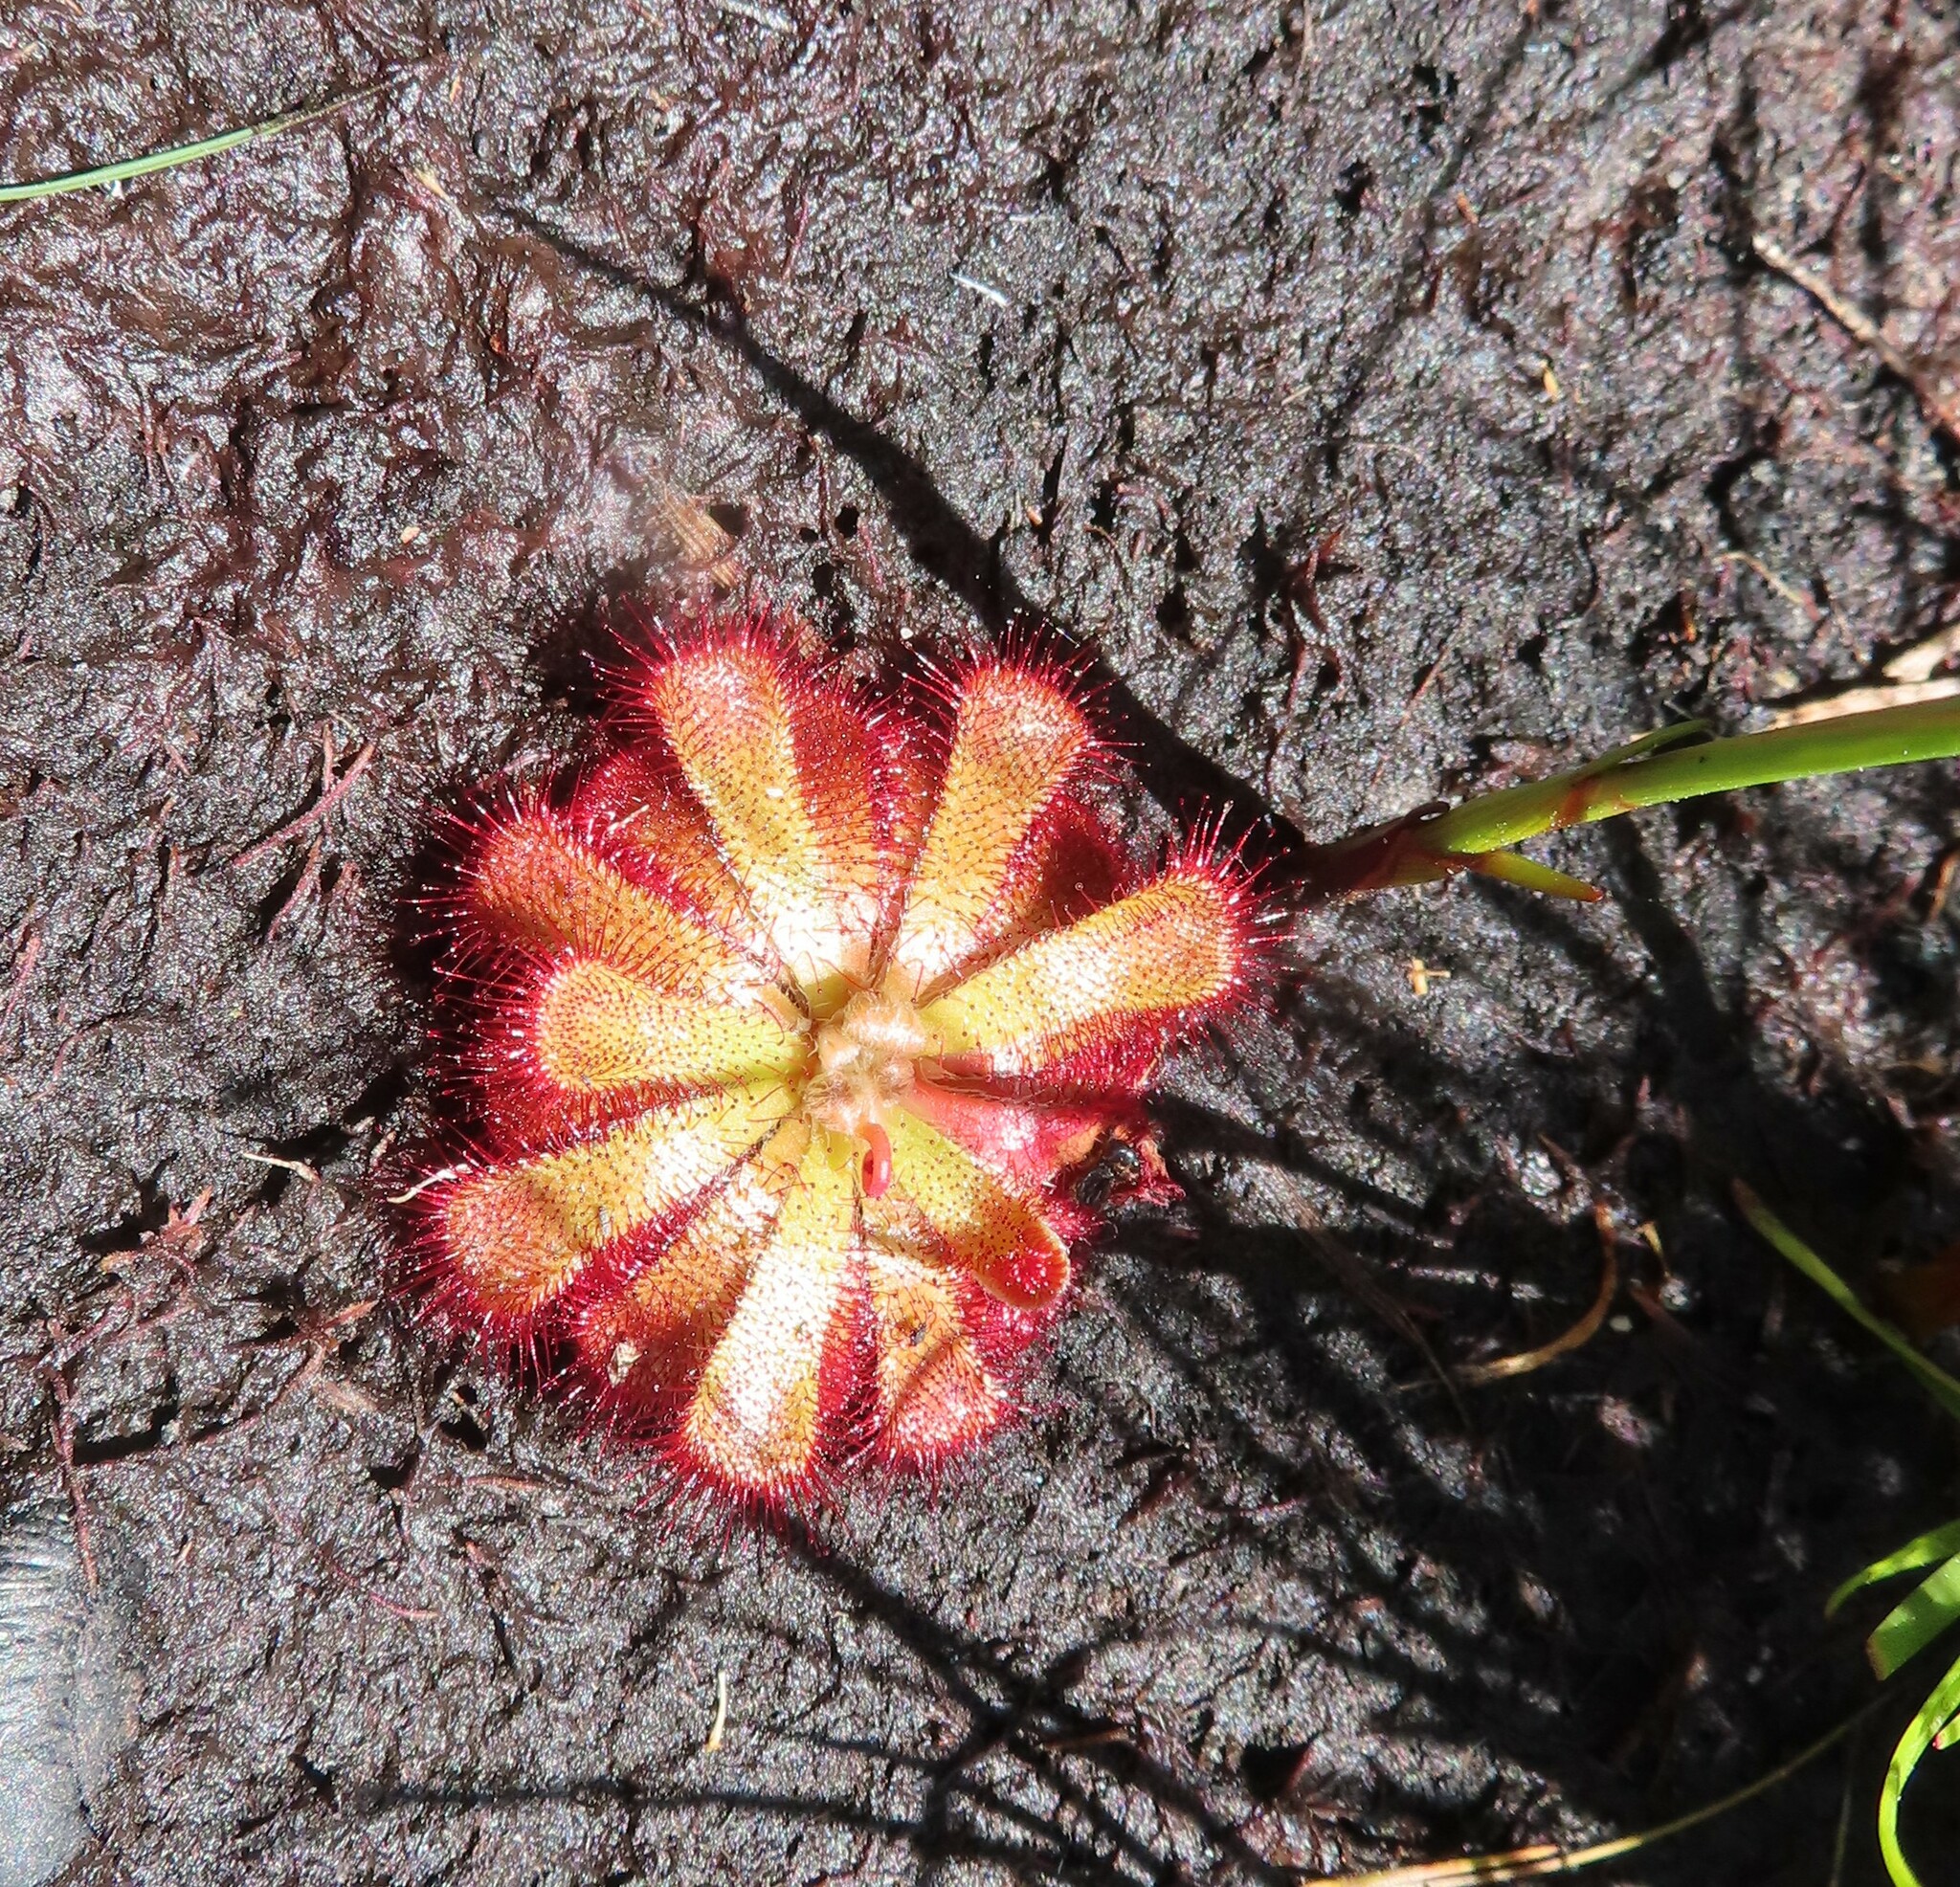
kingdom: Plantae
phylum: Tracheophyta
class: Magnoliopsida
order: Caryophyllales
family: Droseraceae
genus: Drosera
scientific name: Drosera aliciae
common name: Alice sundew
